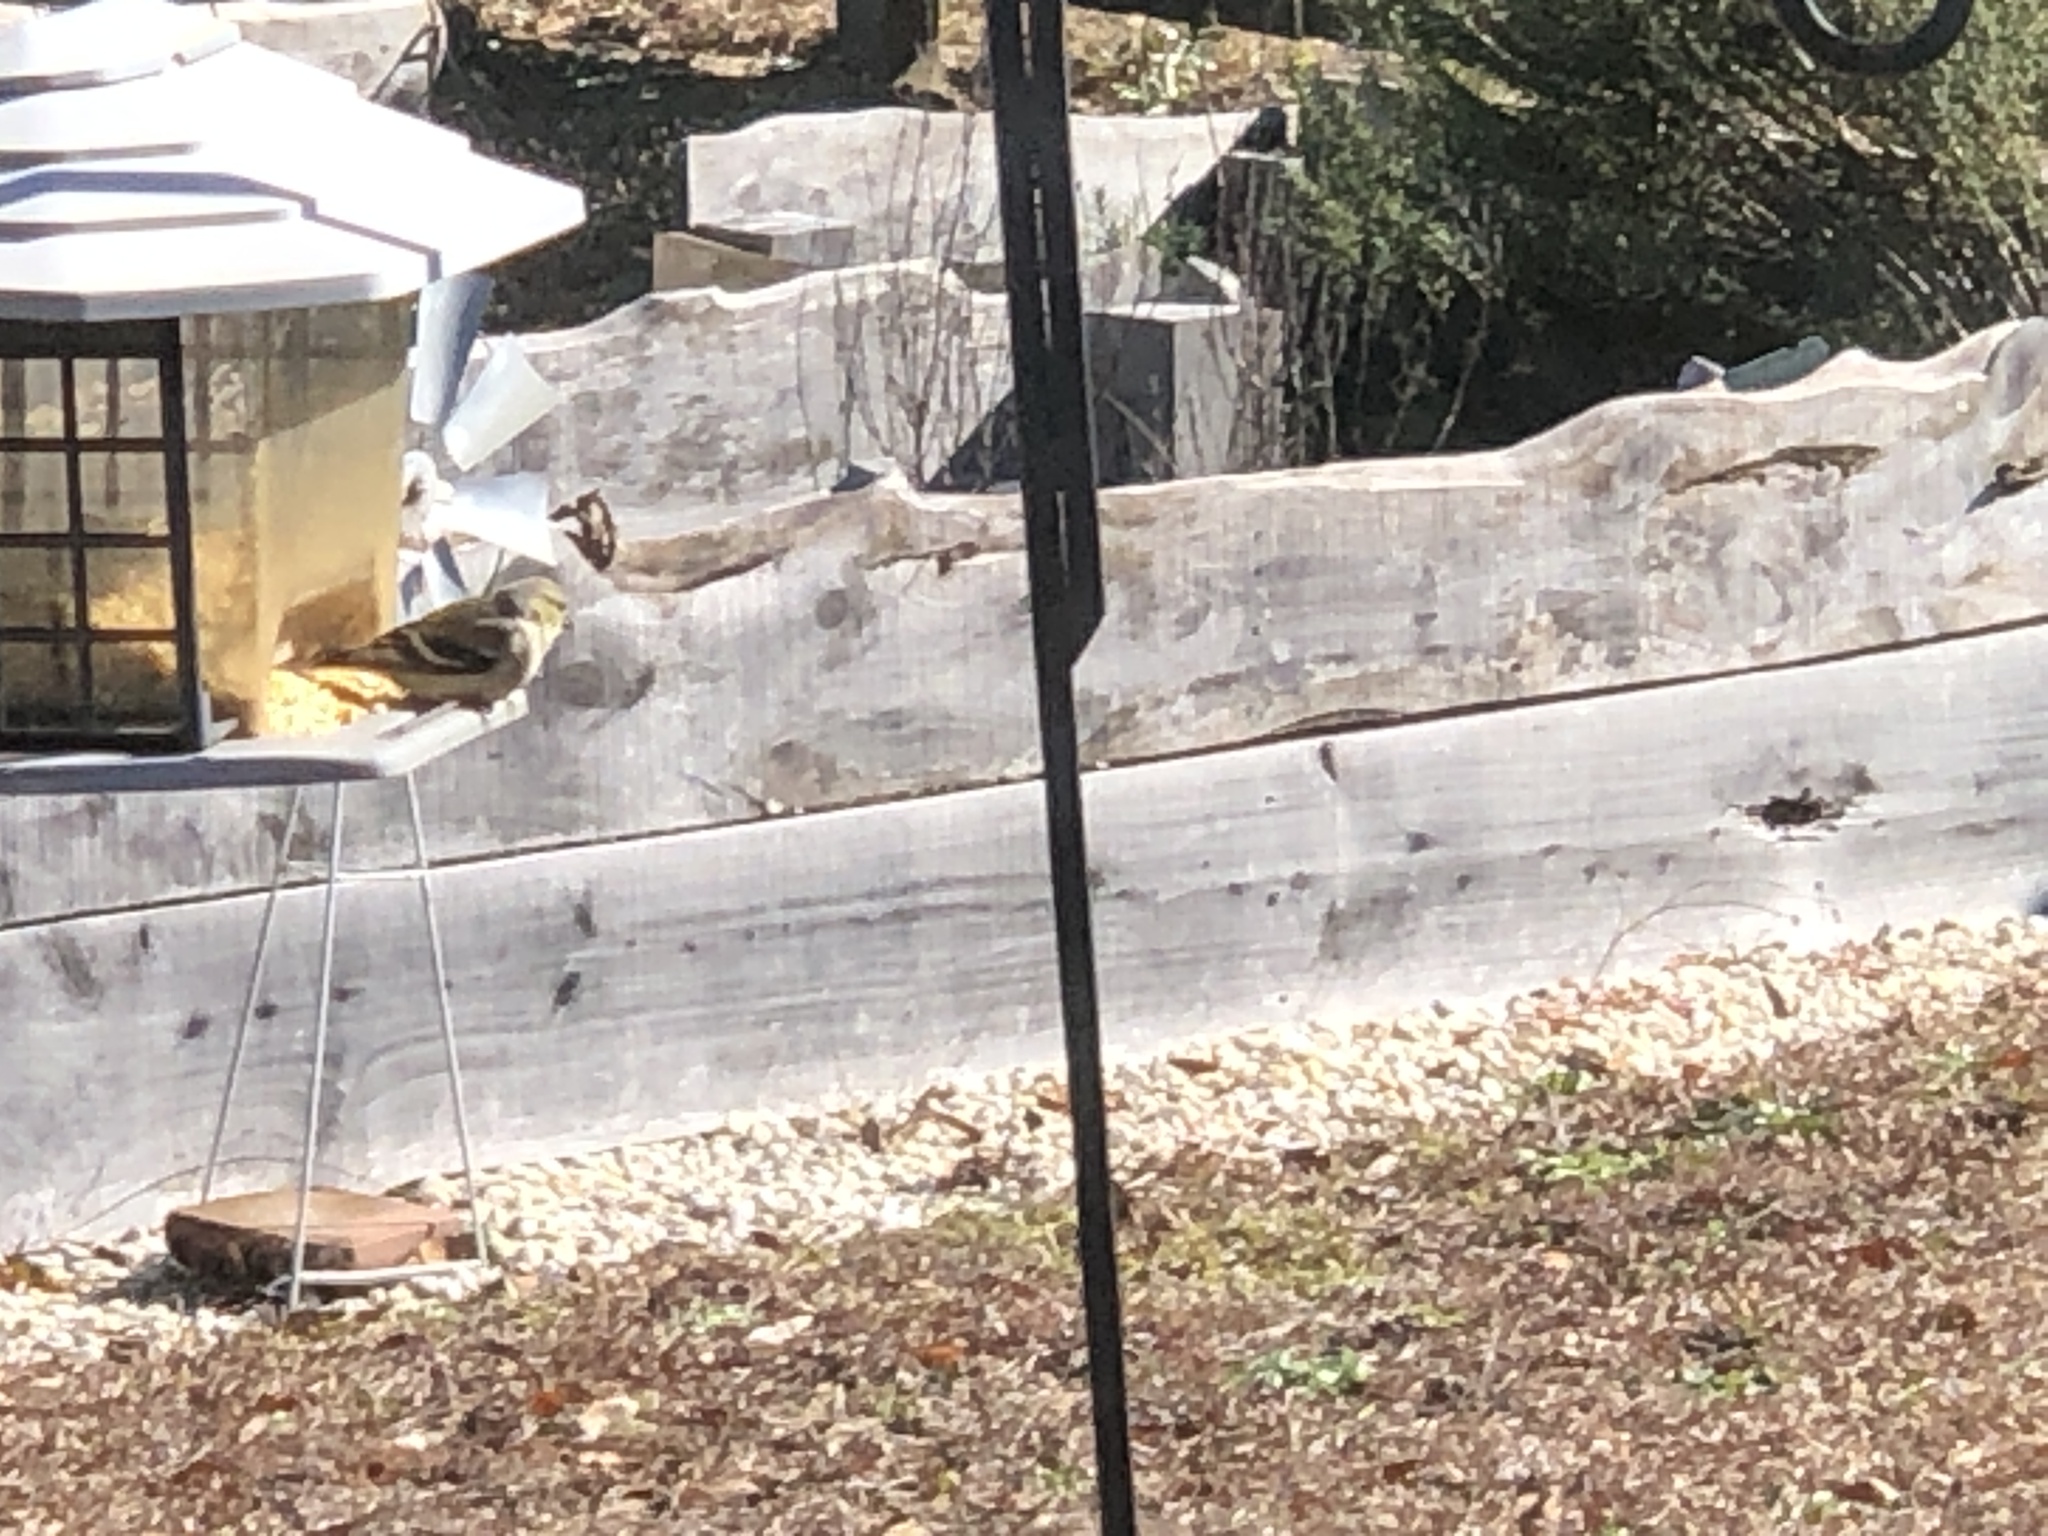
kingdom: Animalia
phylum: Chordata
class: Aves
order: Passeriformes
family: Fringillidae
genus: Spinus
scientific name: Spinus tristis
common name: American goldfinch
